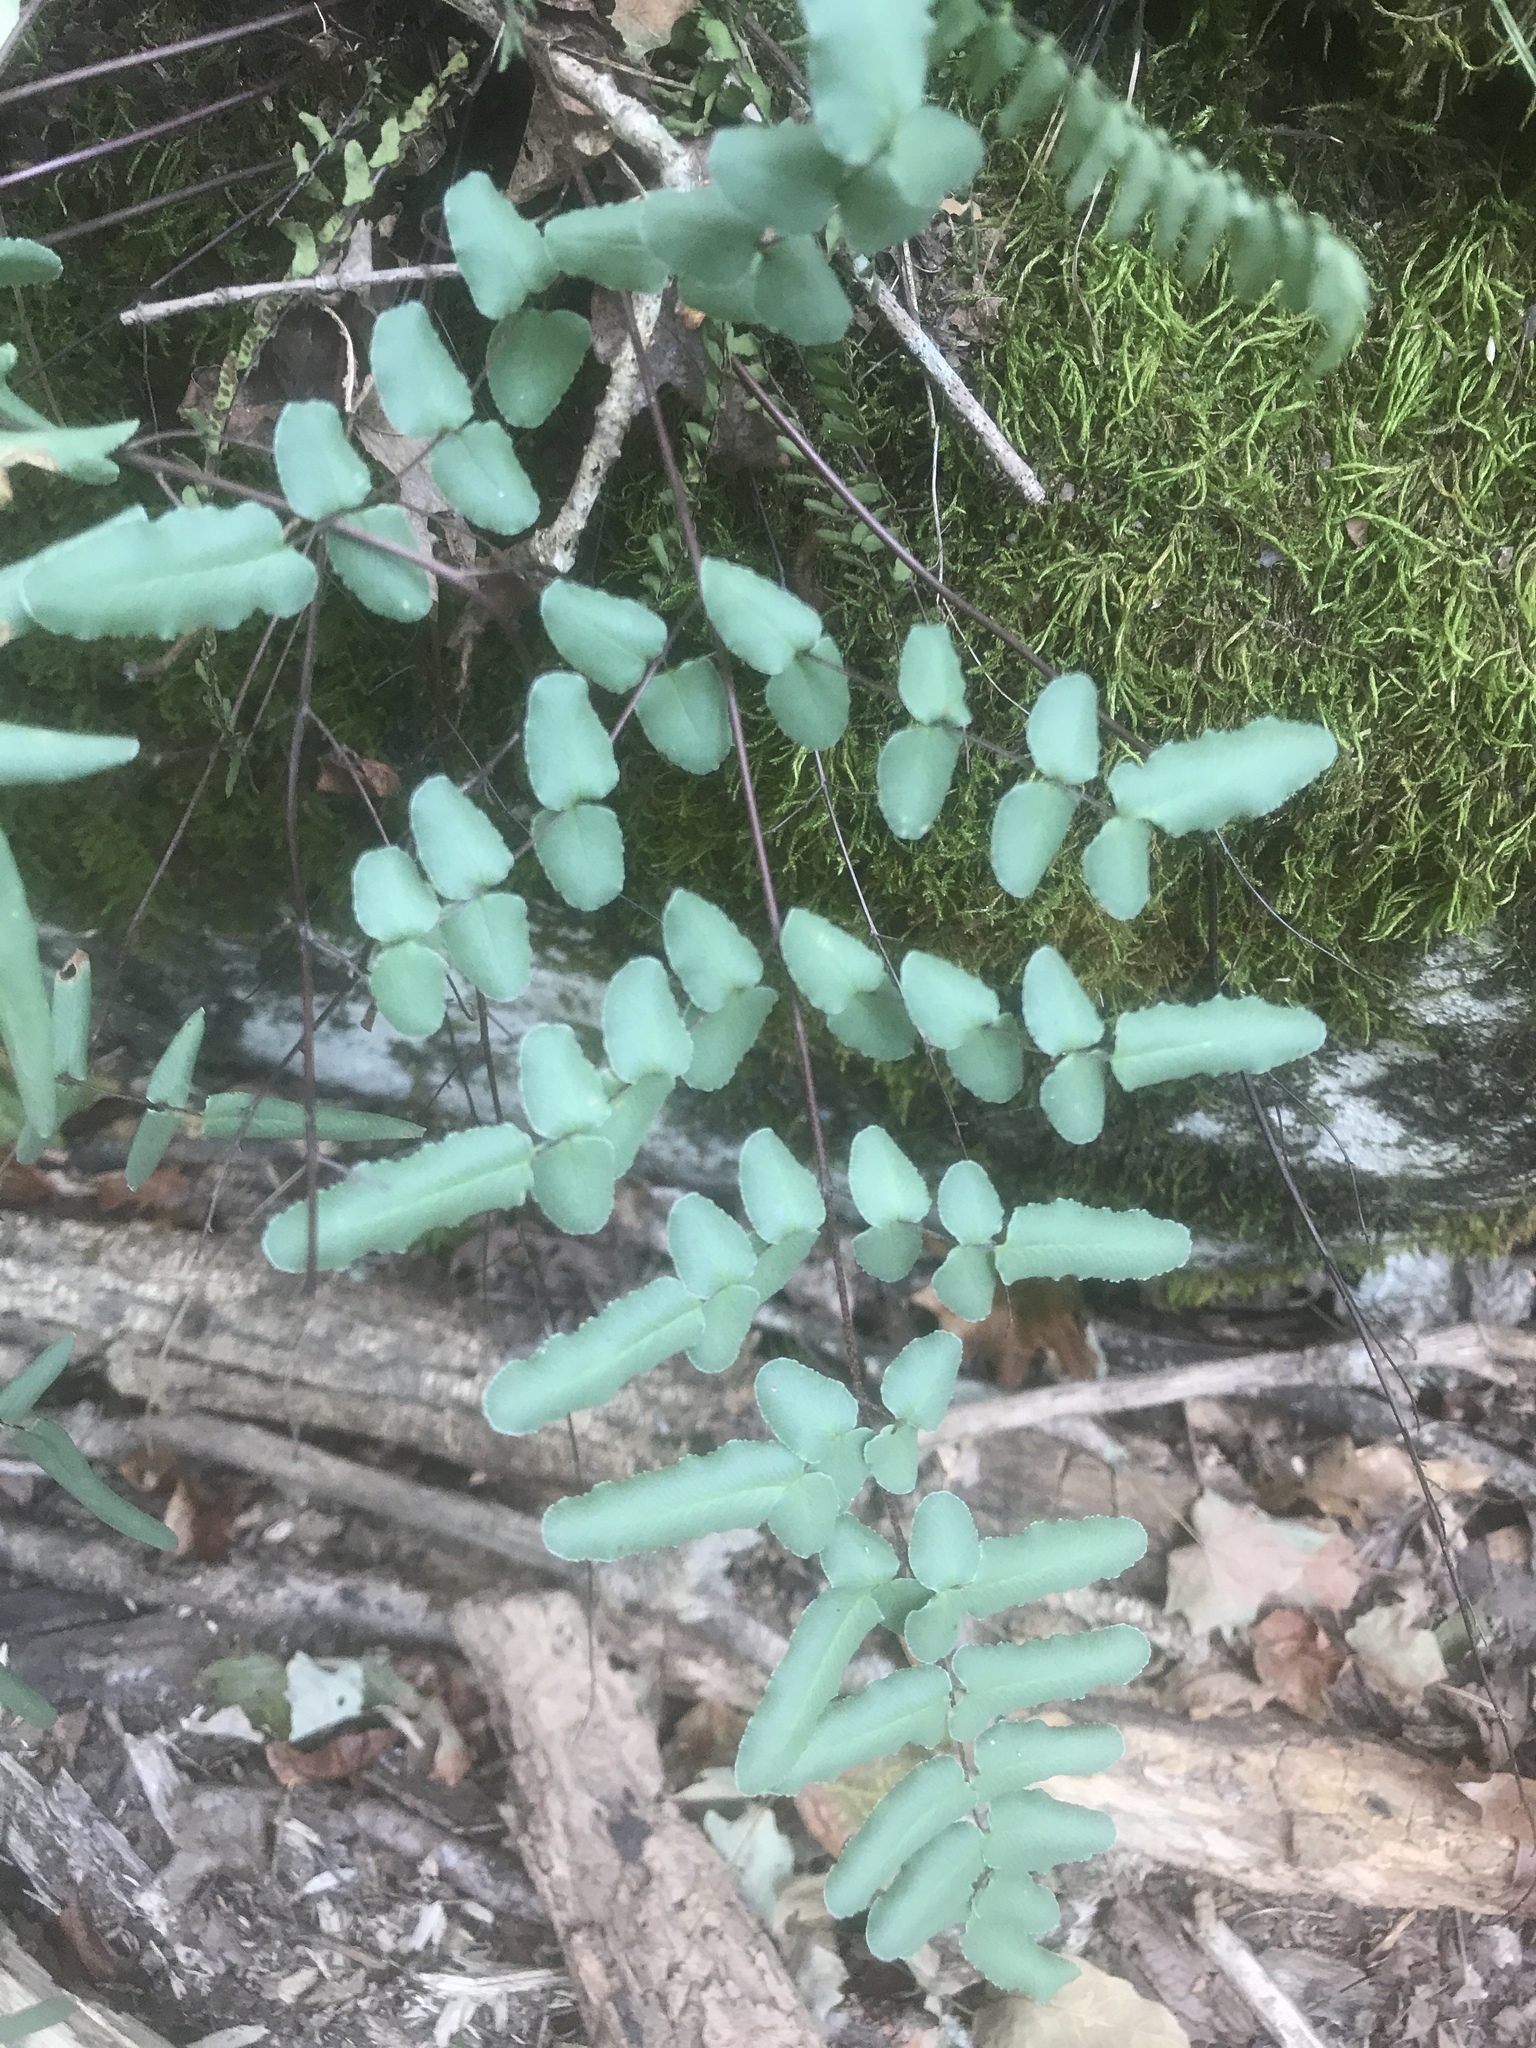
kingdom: Plantae
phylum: Tracheophyta
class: Polypodiopsida
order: Polypodiales
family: Pteridaceae
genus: Pellaea
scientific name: Pellaea atropurpurea
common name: Hairy cliffbrake
